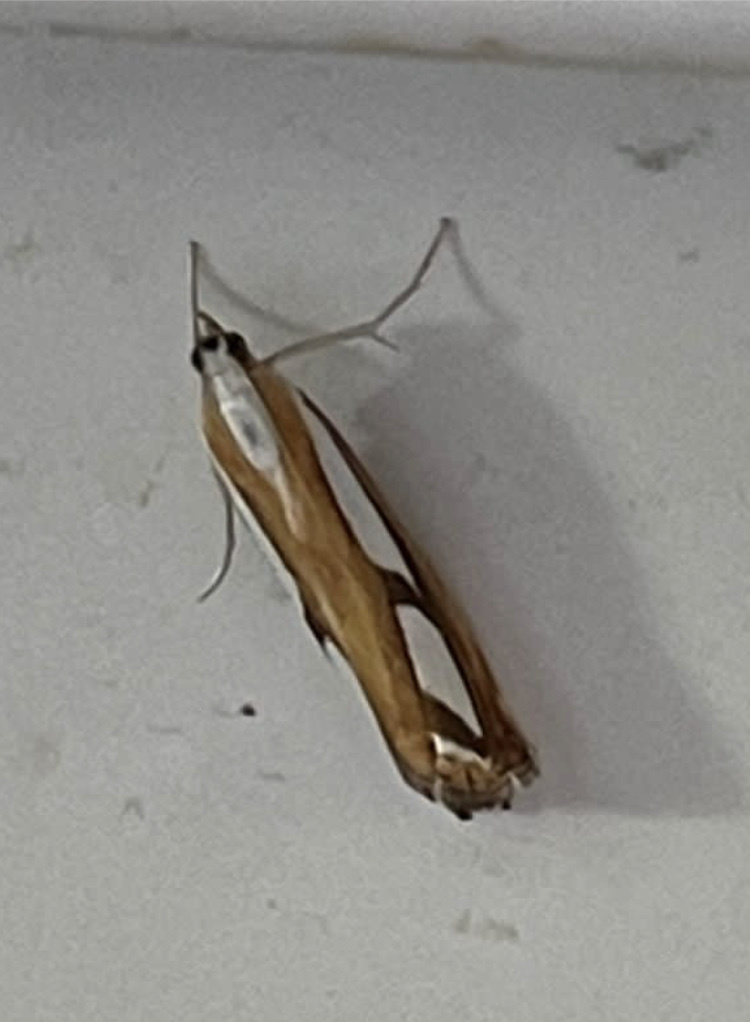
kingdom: Animalia
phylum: Arthropoda
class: Insecta
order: Lepidoptera
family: Crambidae
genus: Catoptria
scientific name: Catoptria
